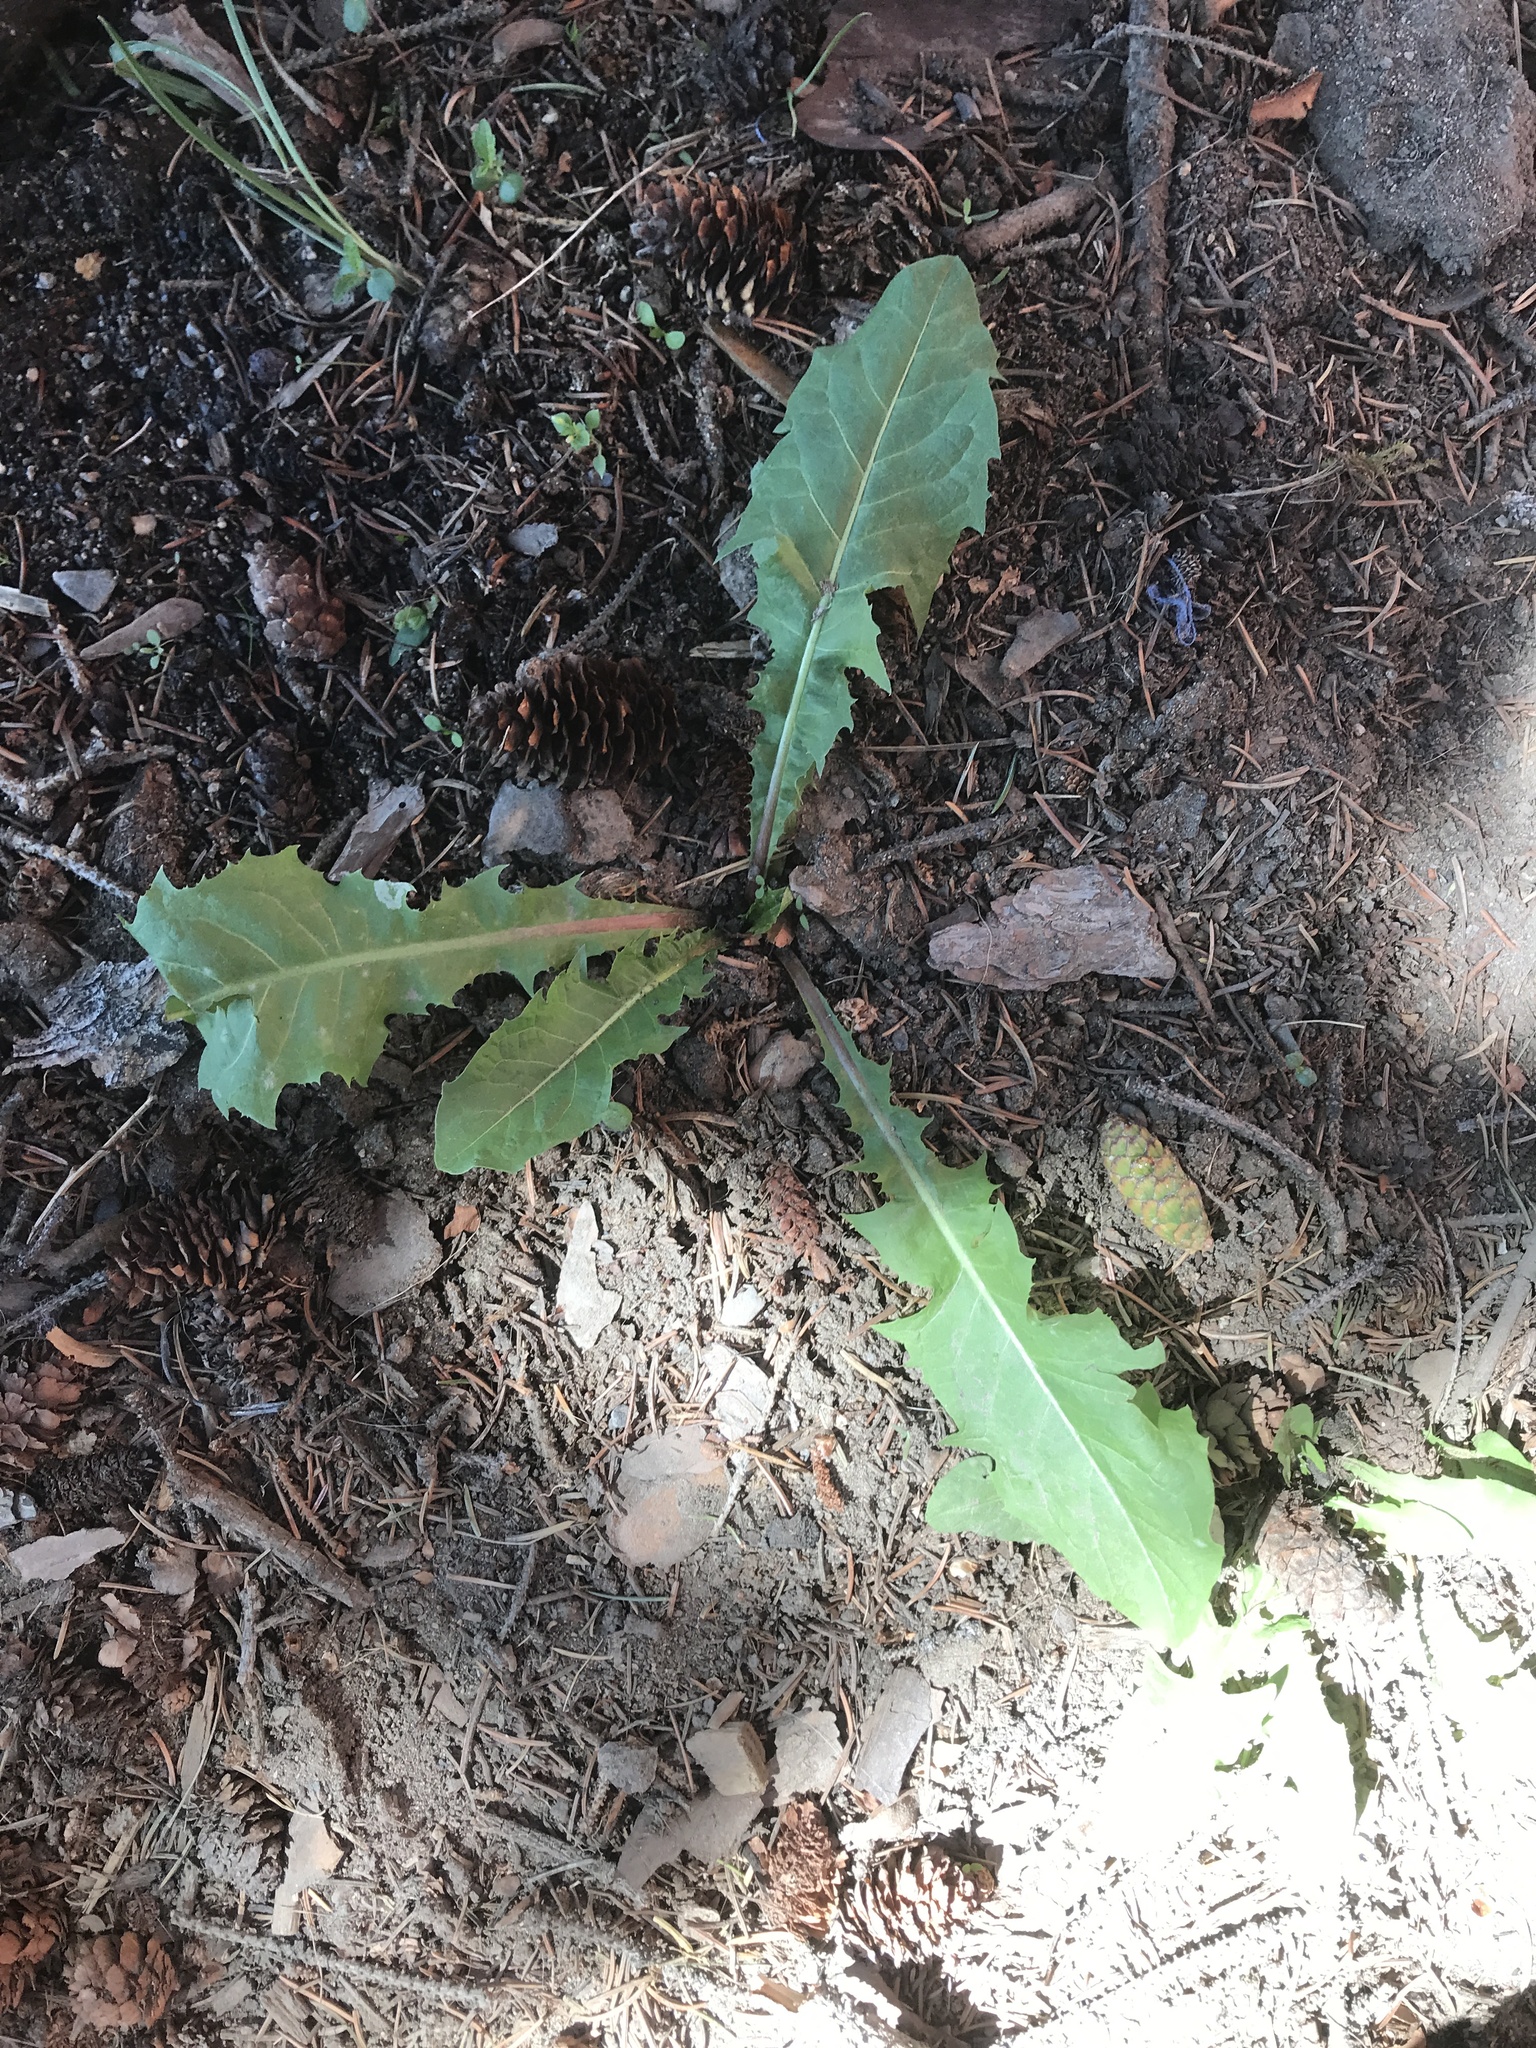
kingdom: Plantae
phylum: Tracheophyta
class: Magnoliopsida
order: Asterales
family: Asteraceae
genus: Taraxacum
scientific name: Taraxacum officinale
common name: Common dandelion
